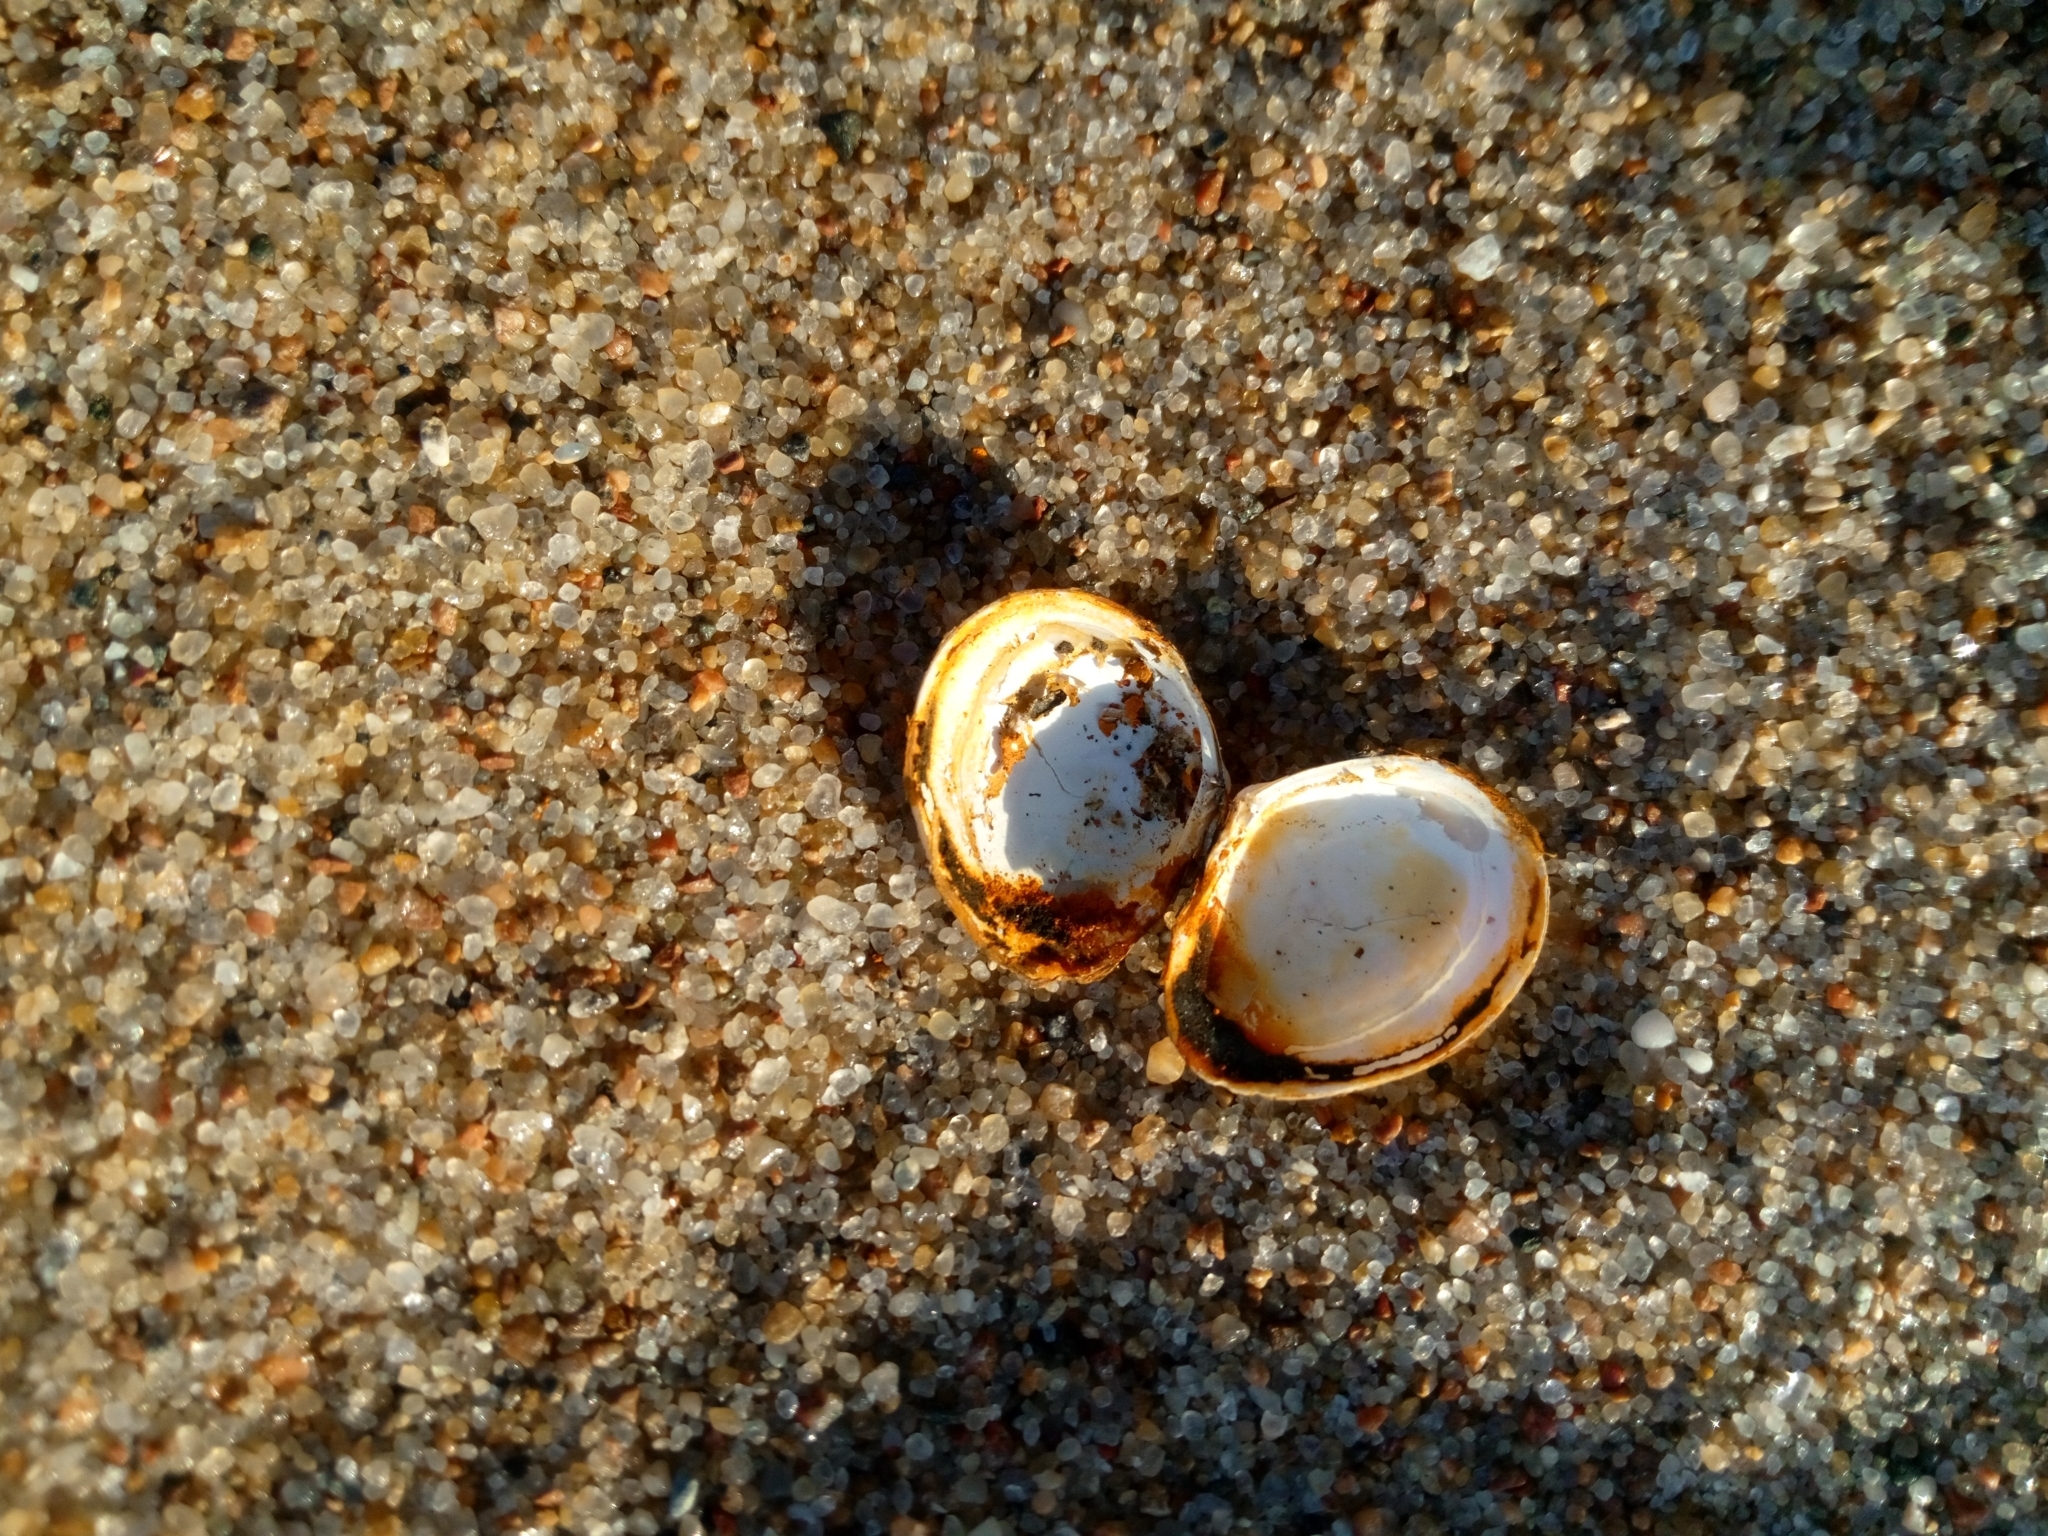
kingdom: Animalia
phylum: Mollusca
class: Bivalvia
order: Cardiida
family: Tellinidae
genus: Macoma
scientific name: Macoma balthica
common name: Baltic tellin
